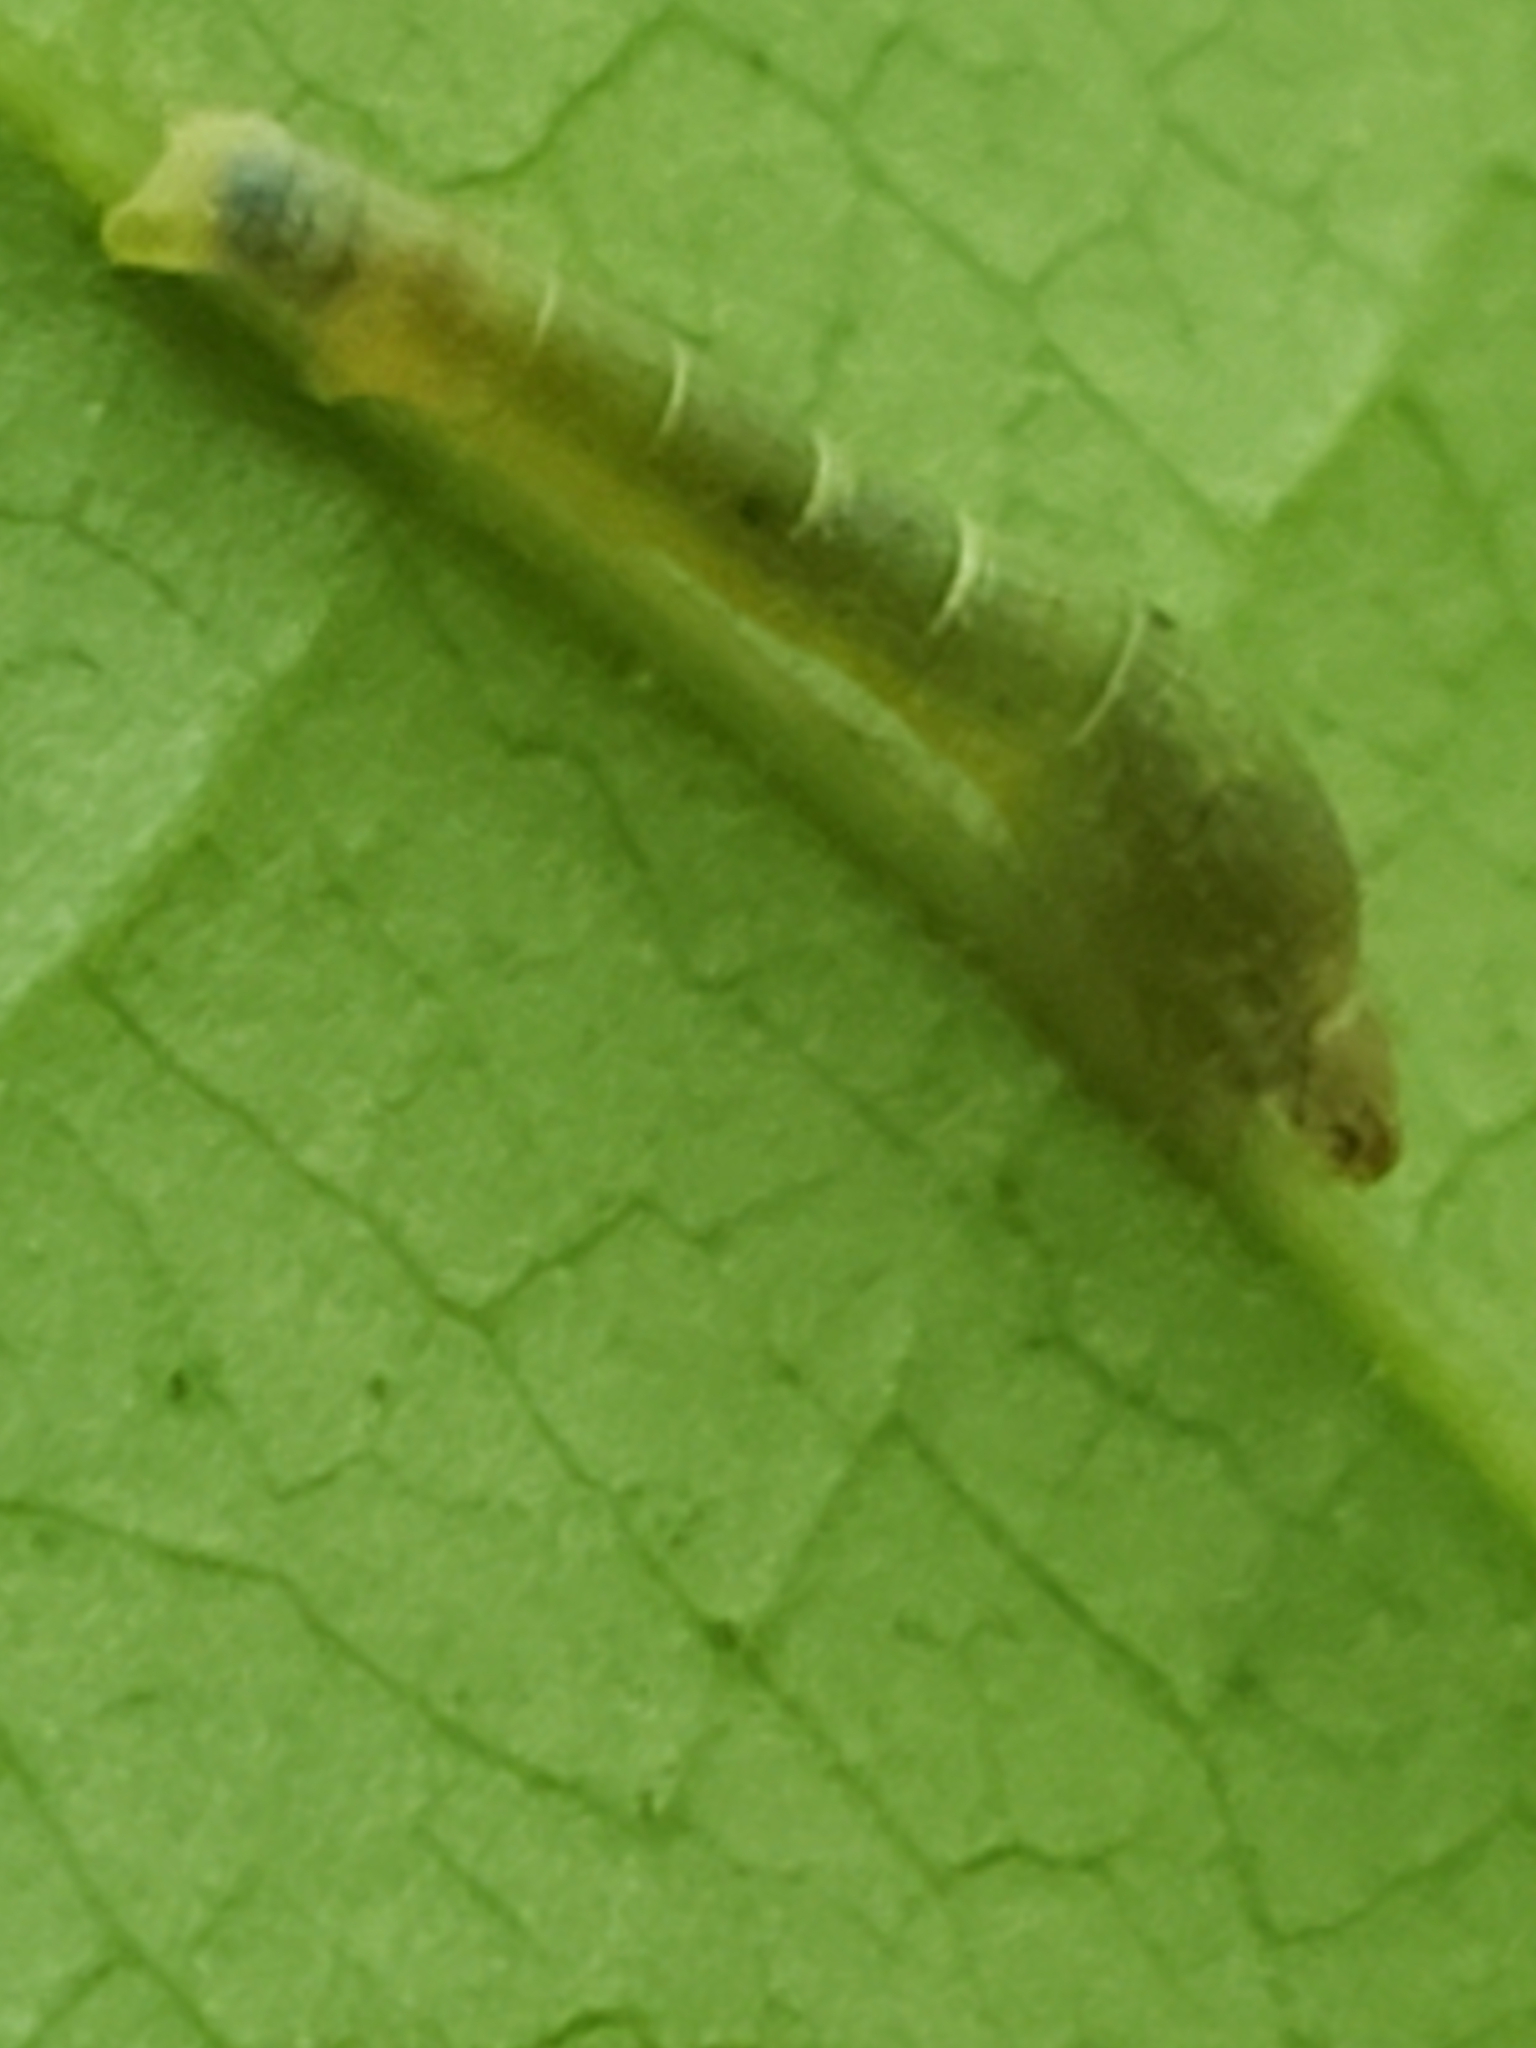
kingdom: Animalia
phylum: Arthropoda
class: Insecta
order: Lepidoptera
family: Geometridae
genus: Epimecis
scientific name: Epimecis hortaria
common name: Tulip-tree beauty
